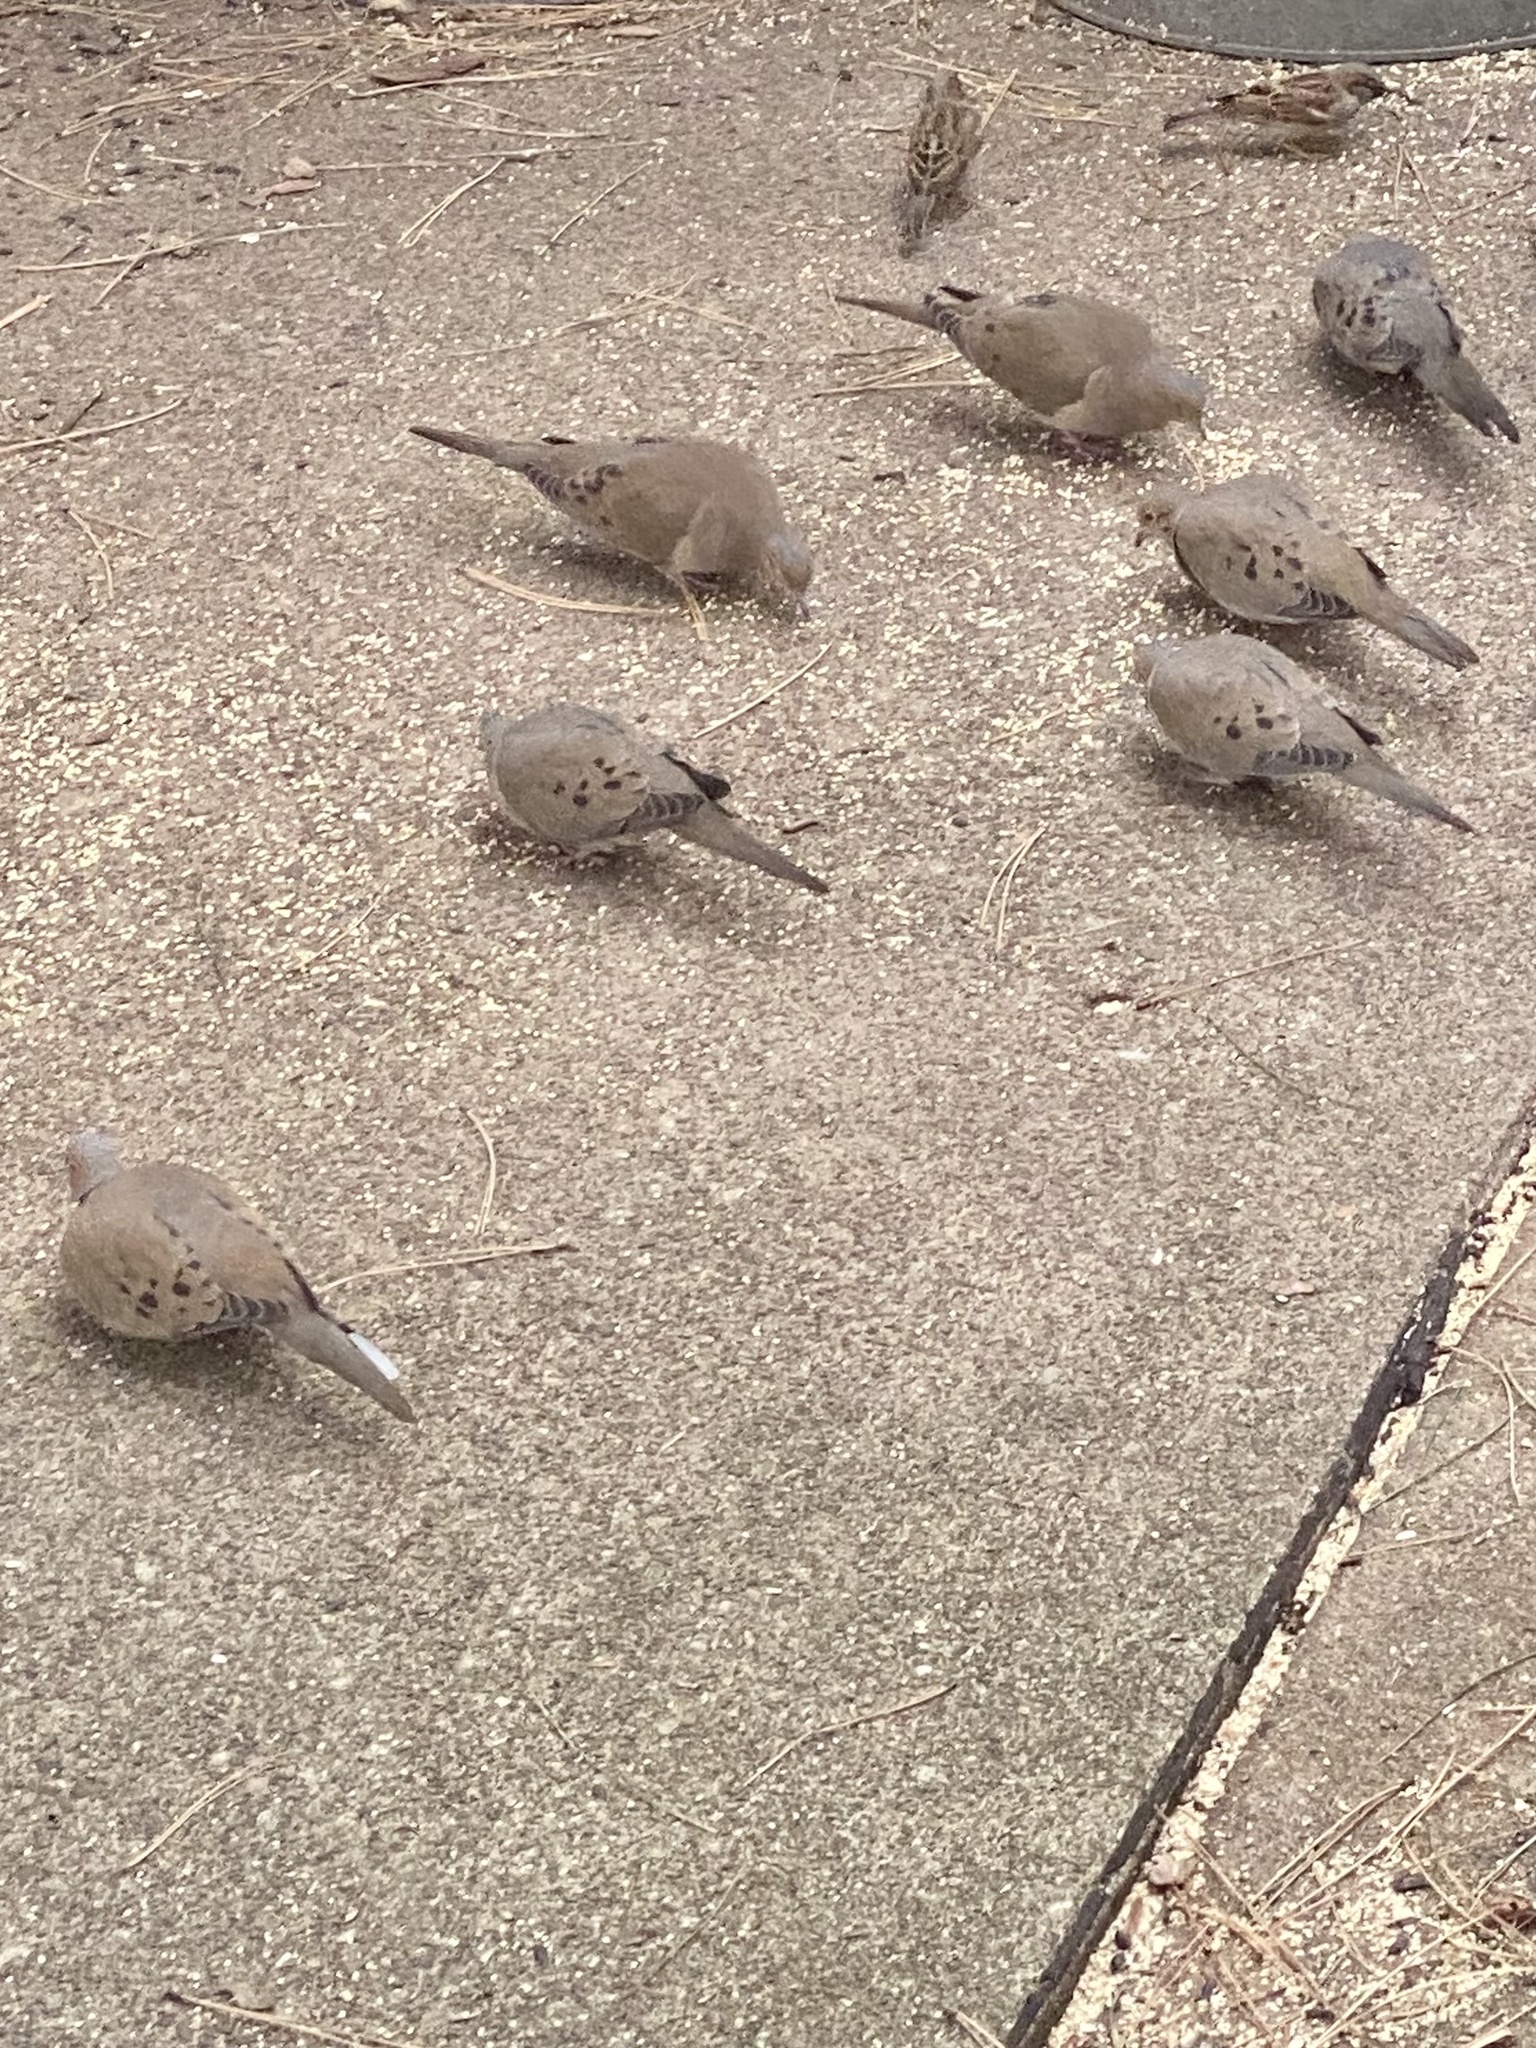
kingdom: Animalia
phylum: Chordata
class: Aves
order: Columbiformes
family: Columbidae
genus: Zenaida
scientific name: Zenaida macroura
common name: Mourning dove
